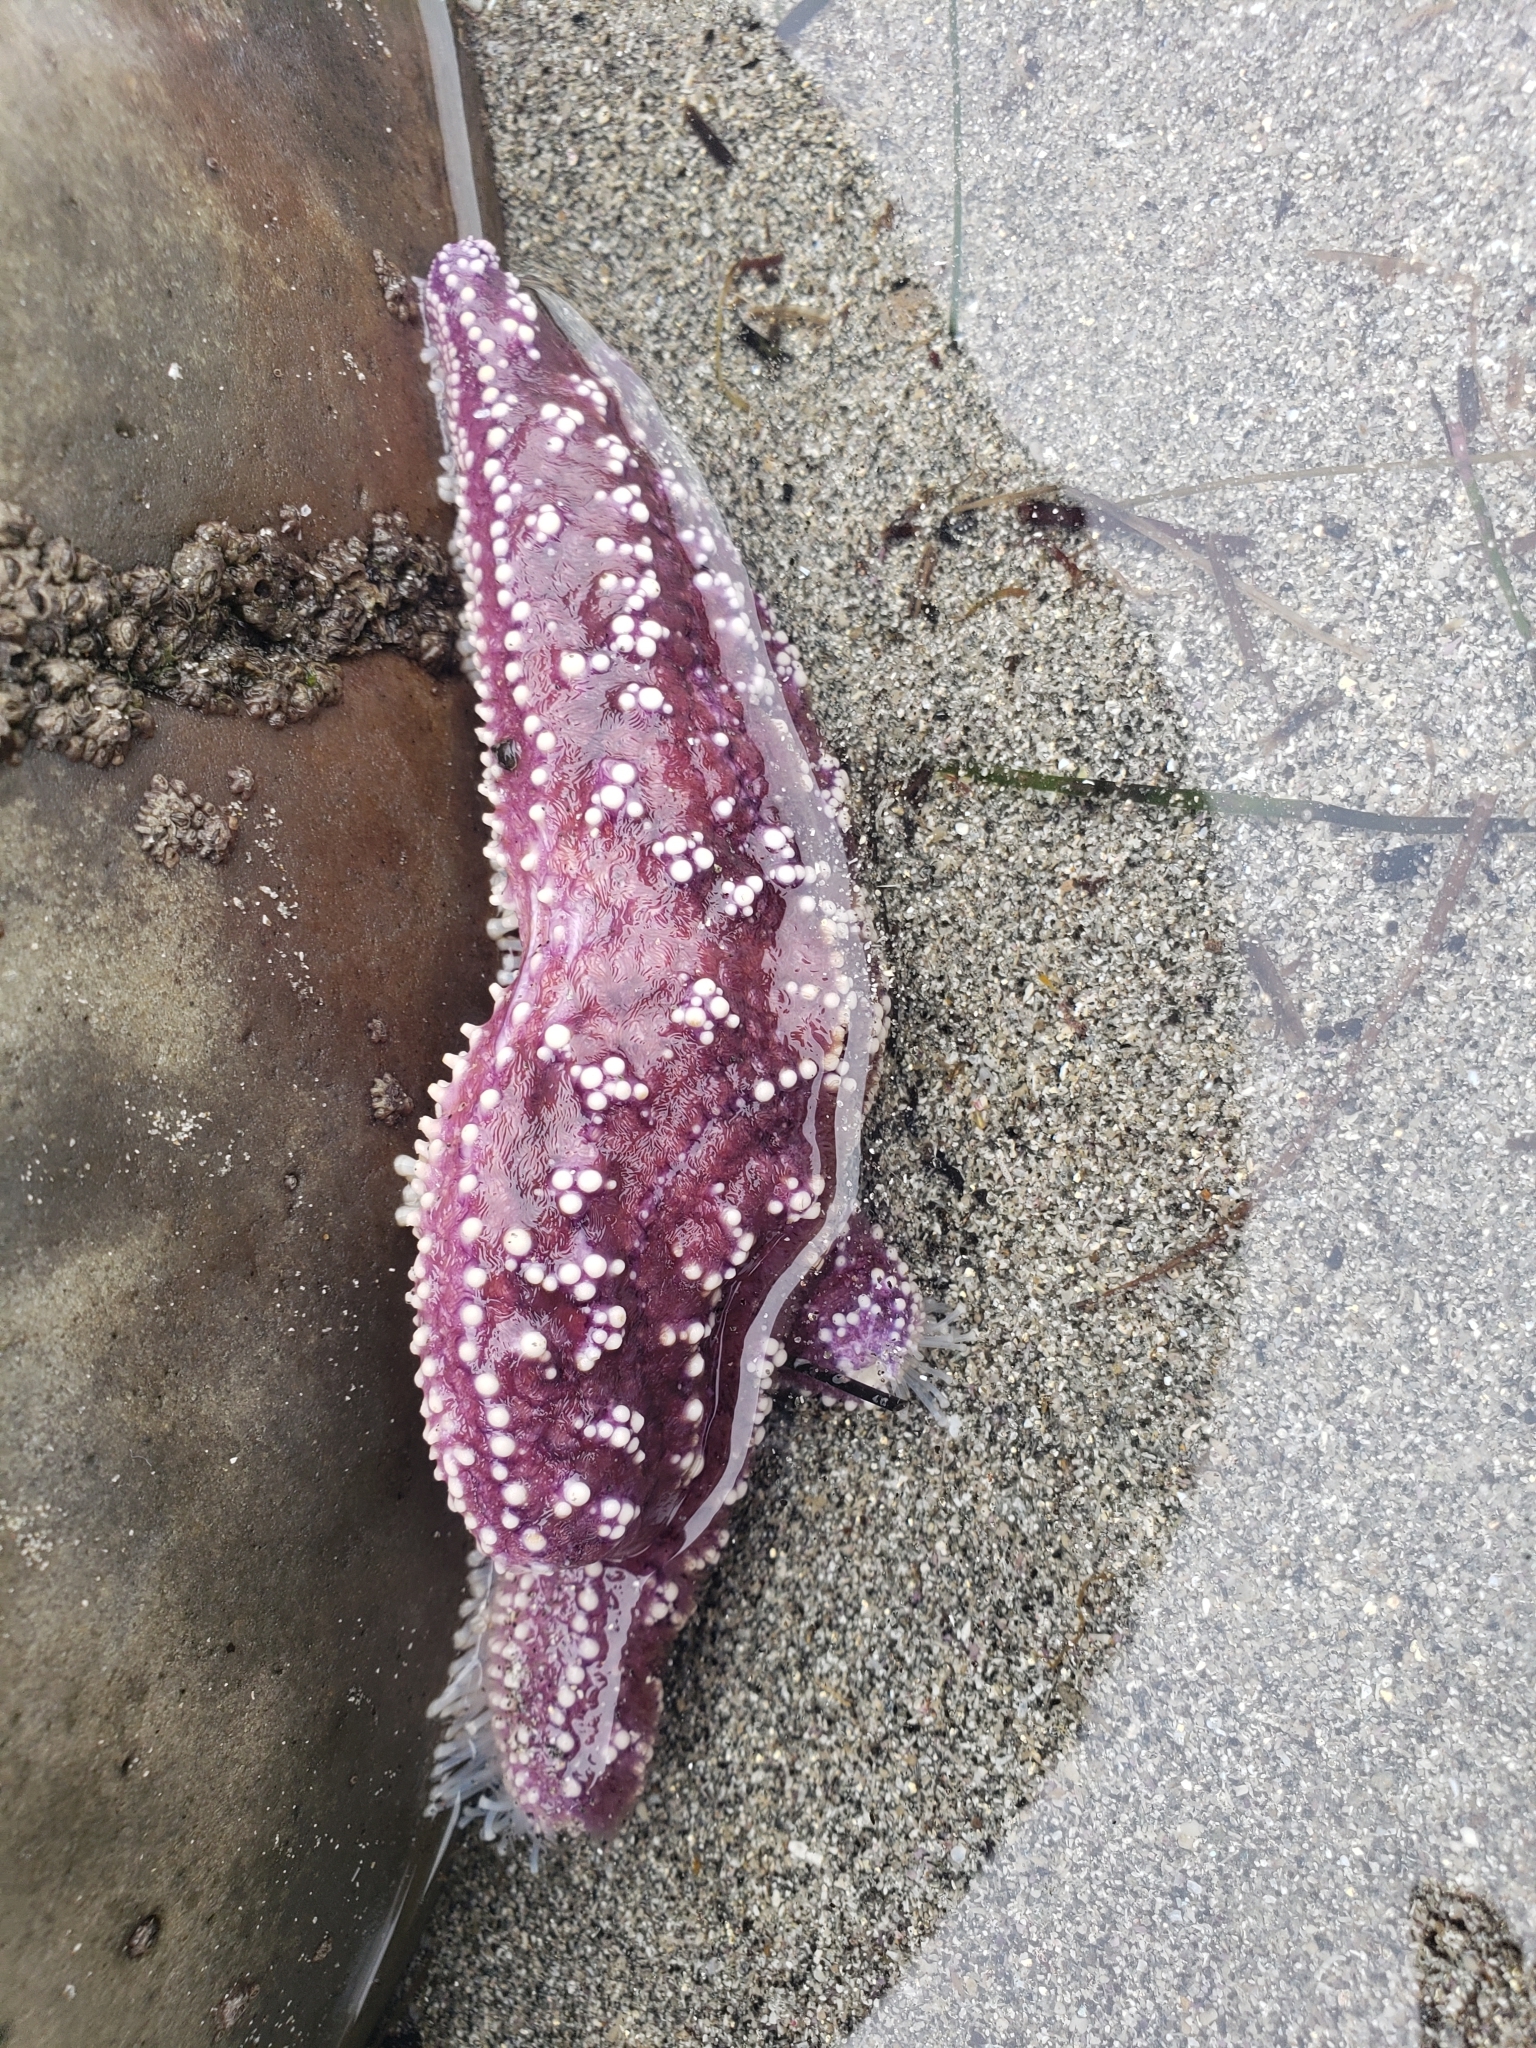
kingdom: Animalia
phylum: Echinodermata
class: Asteroidea
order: Forcipulatida
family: Asteriidae
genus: Pisaster
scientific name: Pisaster ochraceus
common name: Ochre stars
